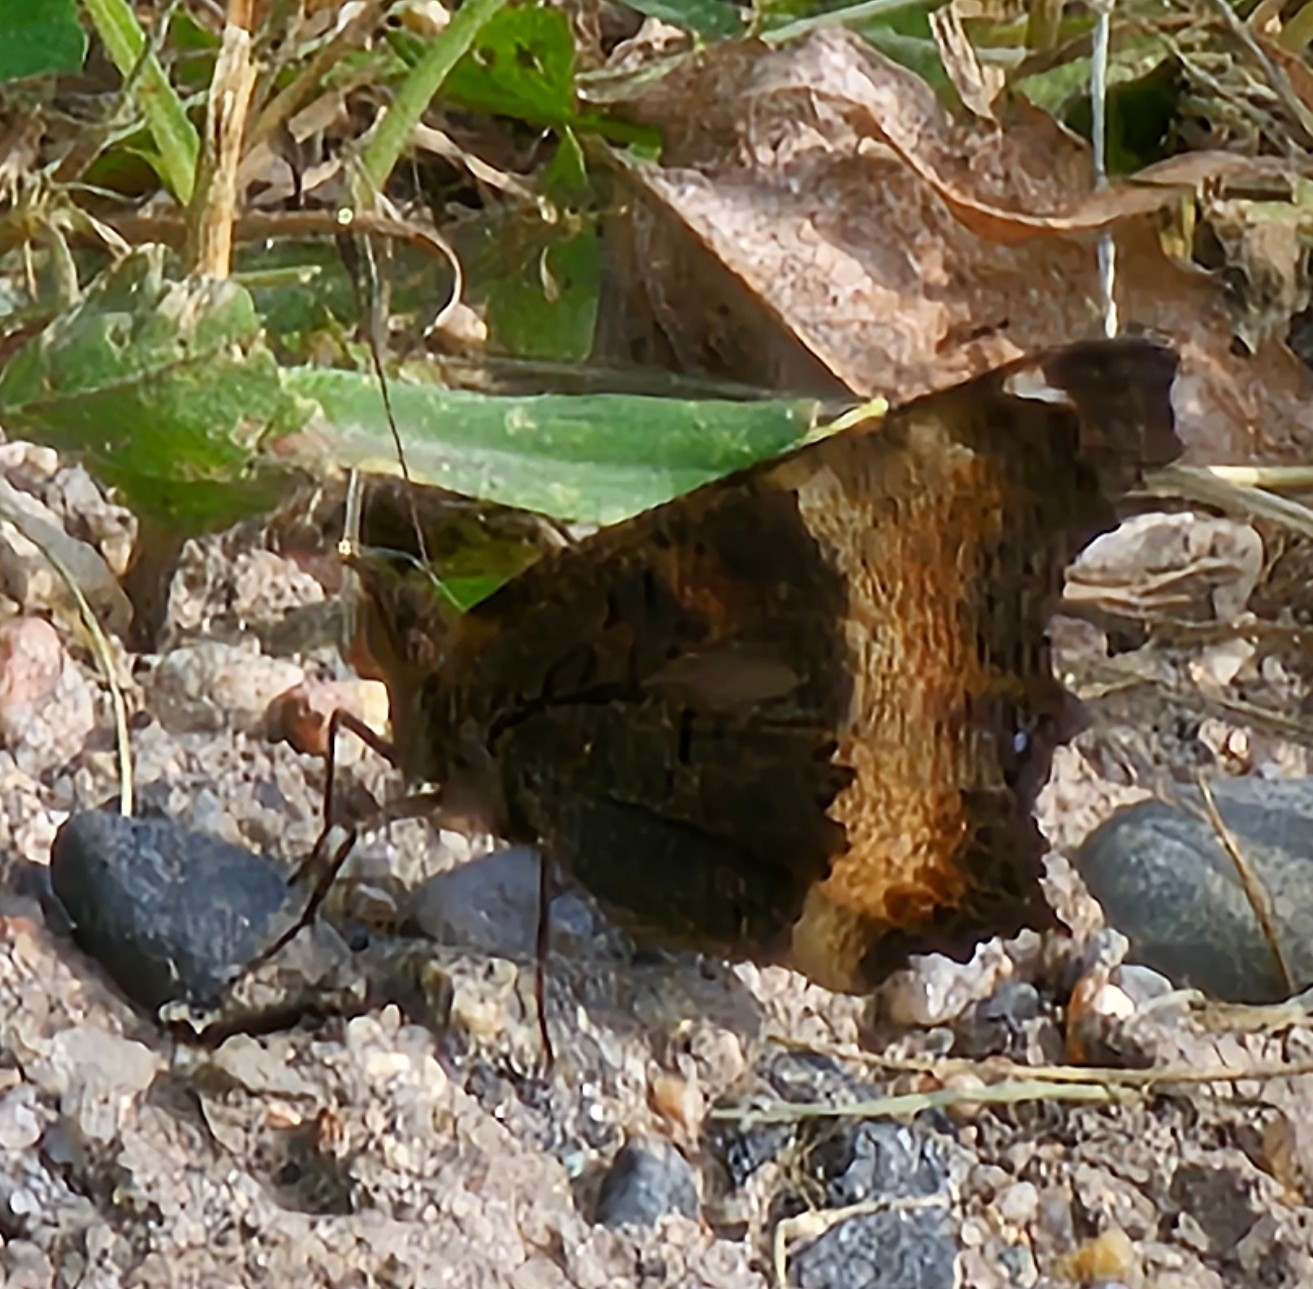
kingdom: Animalia
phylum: Arthropoda
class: Insecta
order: Lepidoptera
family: Nymphalidae
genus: Aglais
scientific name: Aglais milberti
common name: Milbert's tortoiseshell
